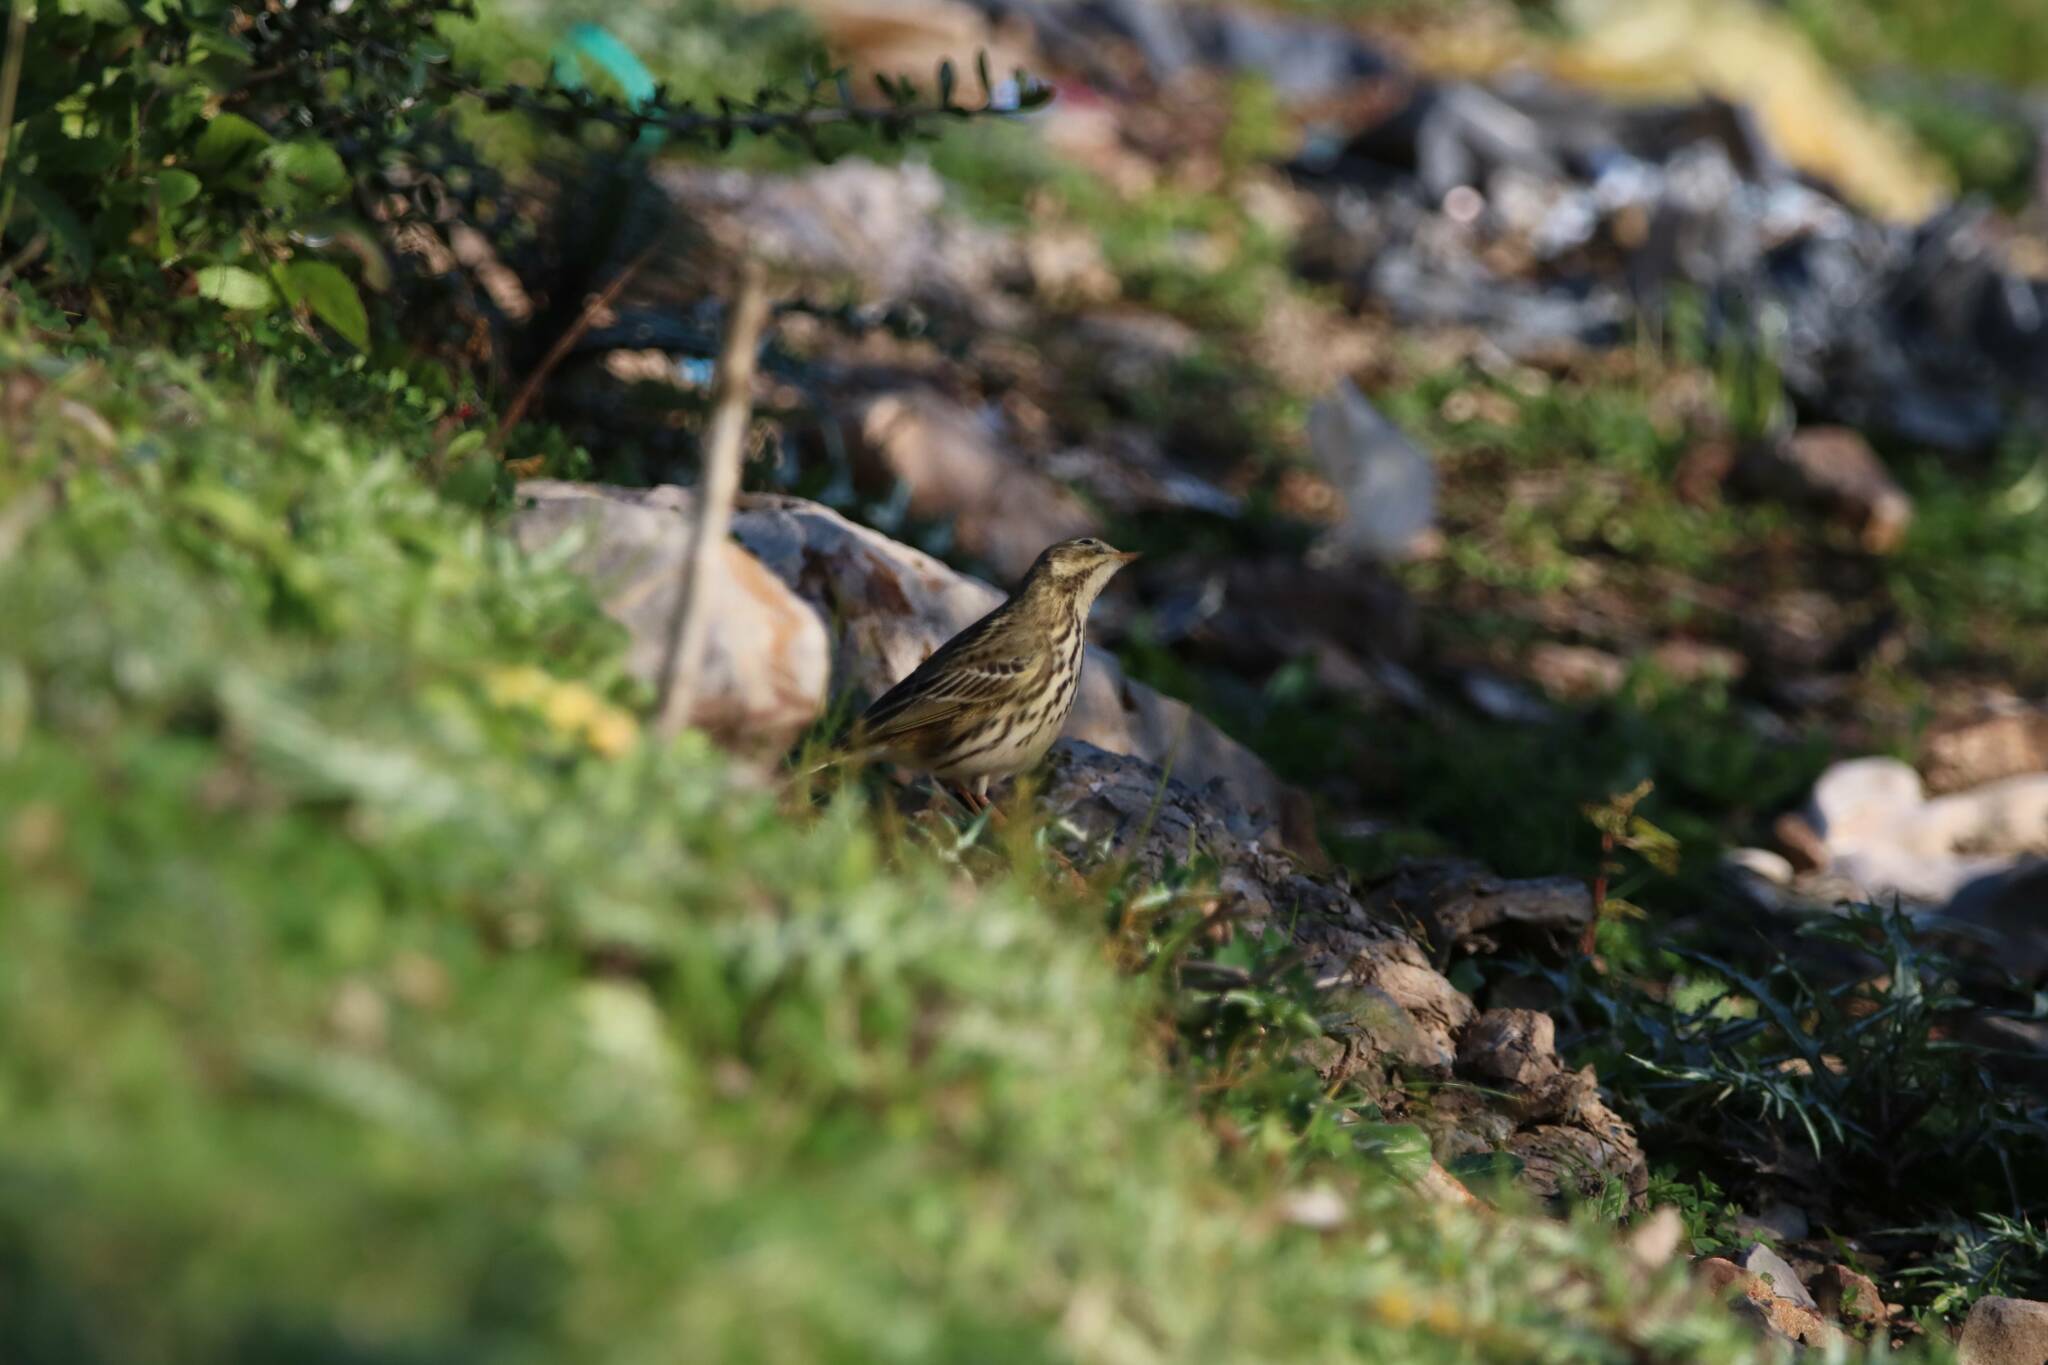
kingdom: Animalia
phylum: Chordata
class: Aves
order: Passeriformes
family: Motacillidae
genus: Anthus
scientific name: Anthus pratensis
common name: Meadow pipit
